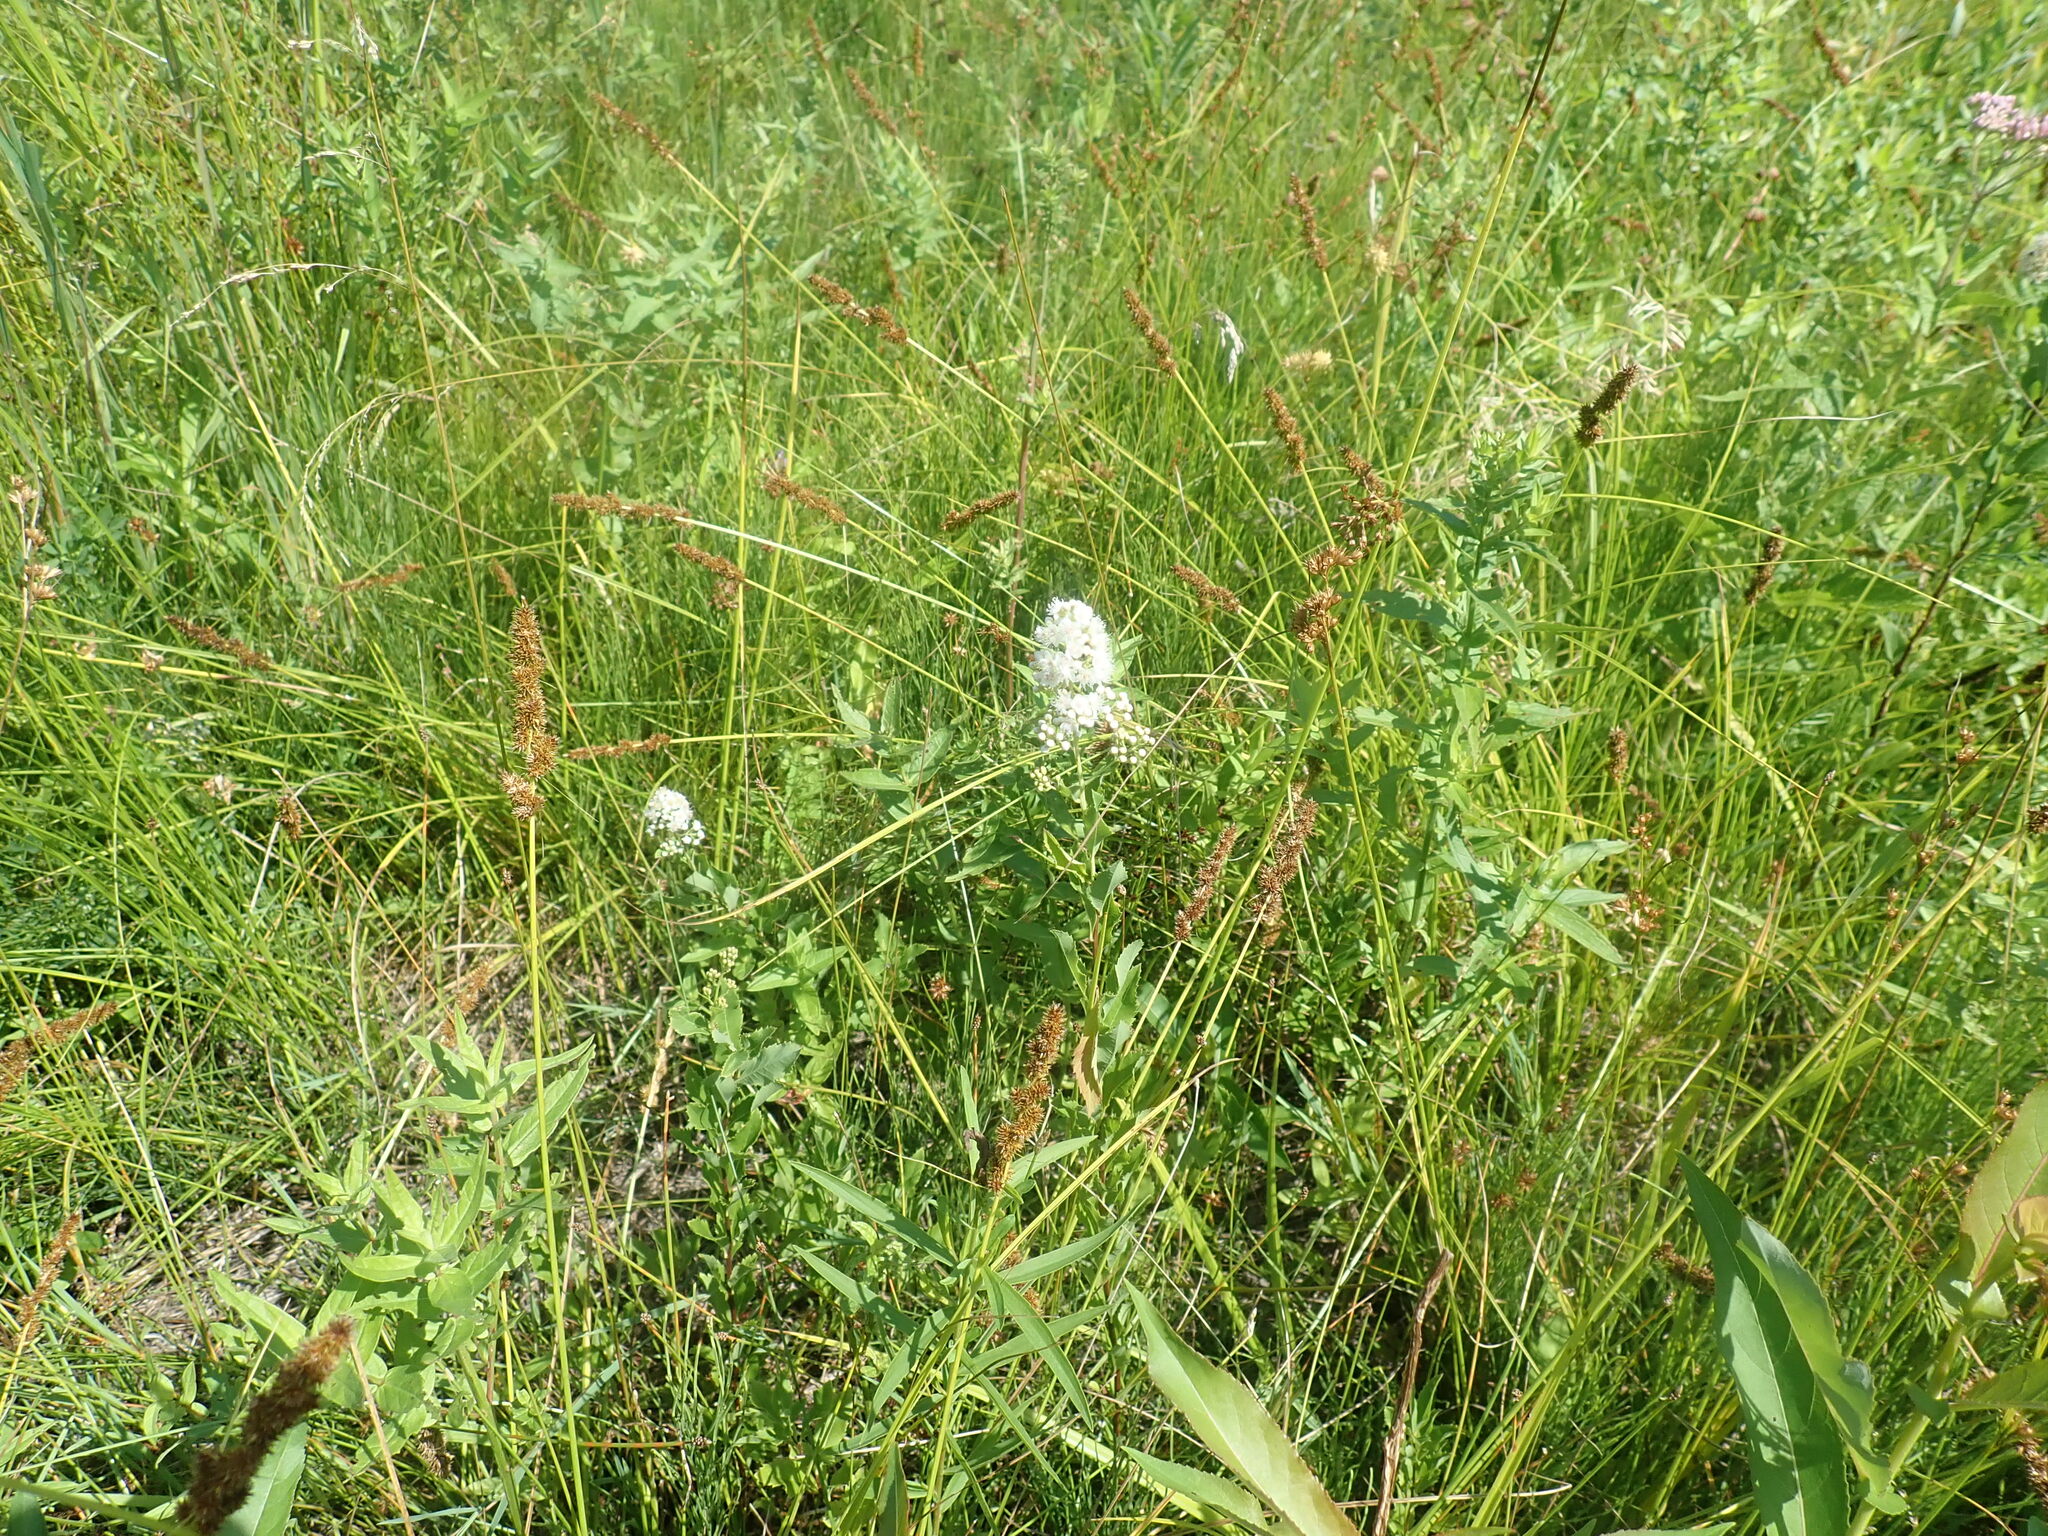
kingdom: Plantae
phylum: Tracheophyta
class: Magnoliopsida
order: Rosales
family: Rosaceae
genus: Spiraea
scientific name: Spiraea alba
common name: Pale bridewort
